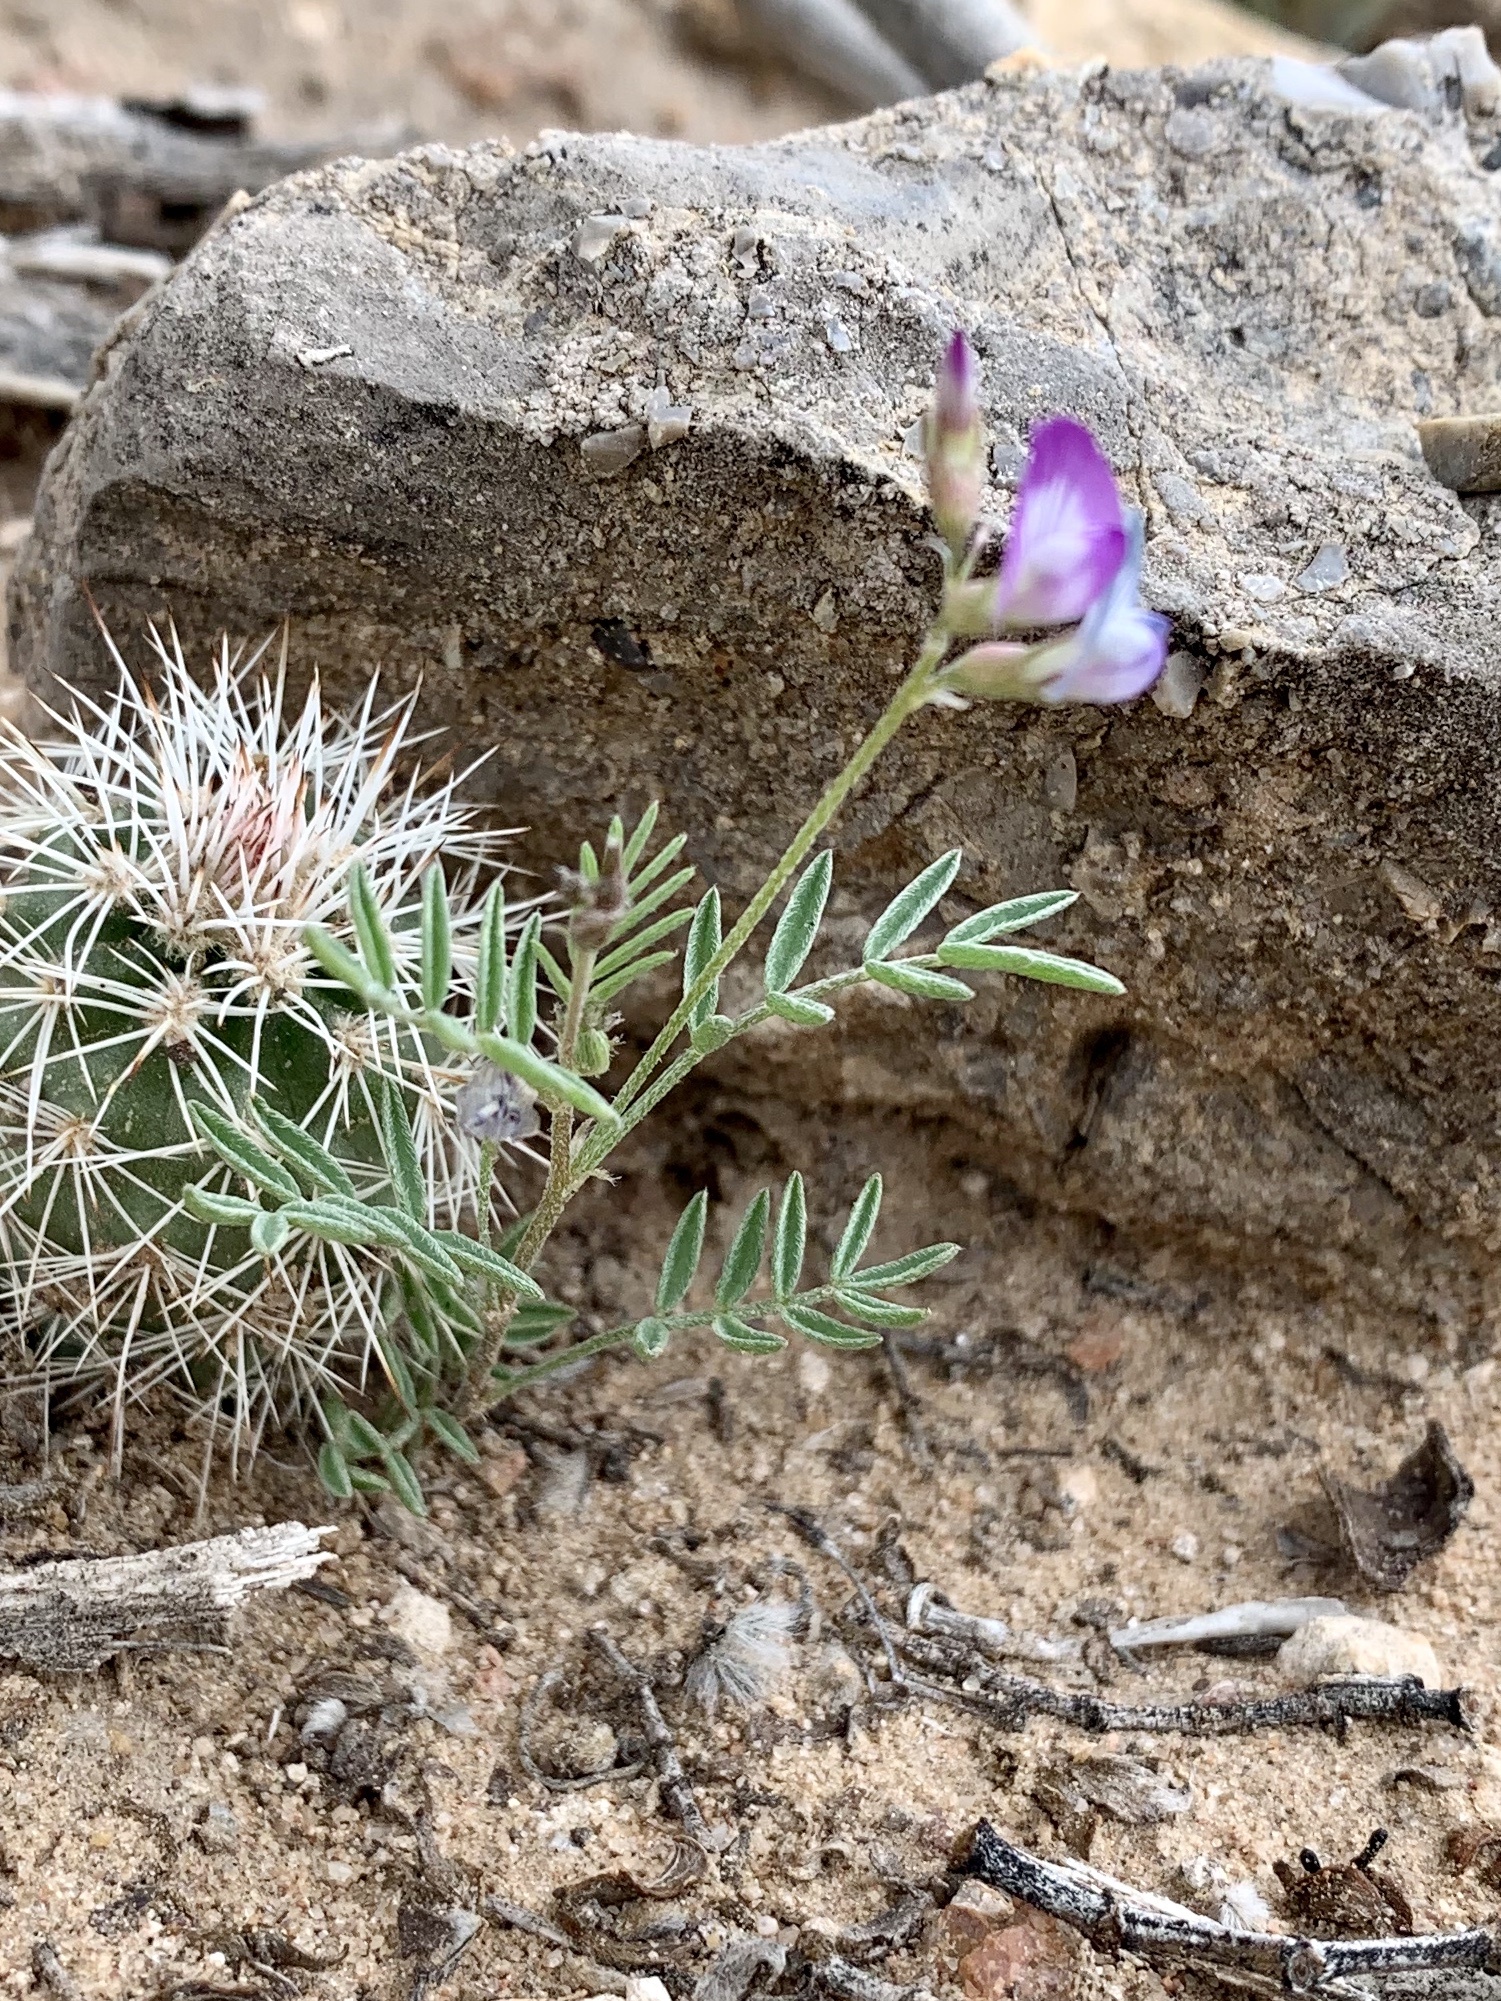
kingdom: Plantae
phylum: Tracheophyta
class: Magnoliopsida
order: Fabales
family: Fabaceae
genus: Astragalus
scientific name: Astragalus nuttallianus
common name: Smallflowered milkvetch
